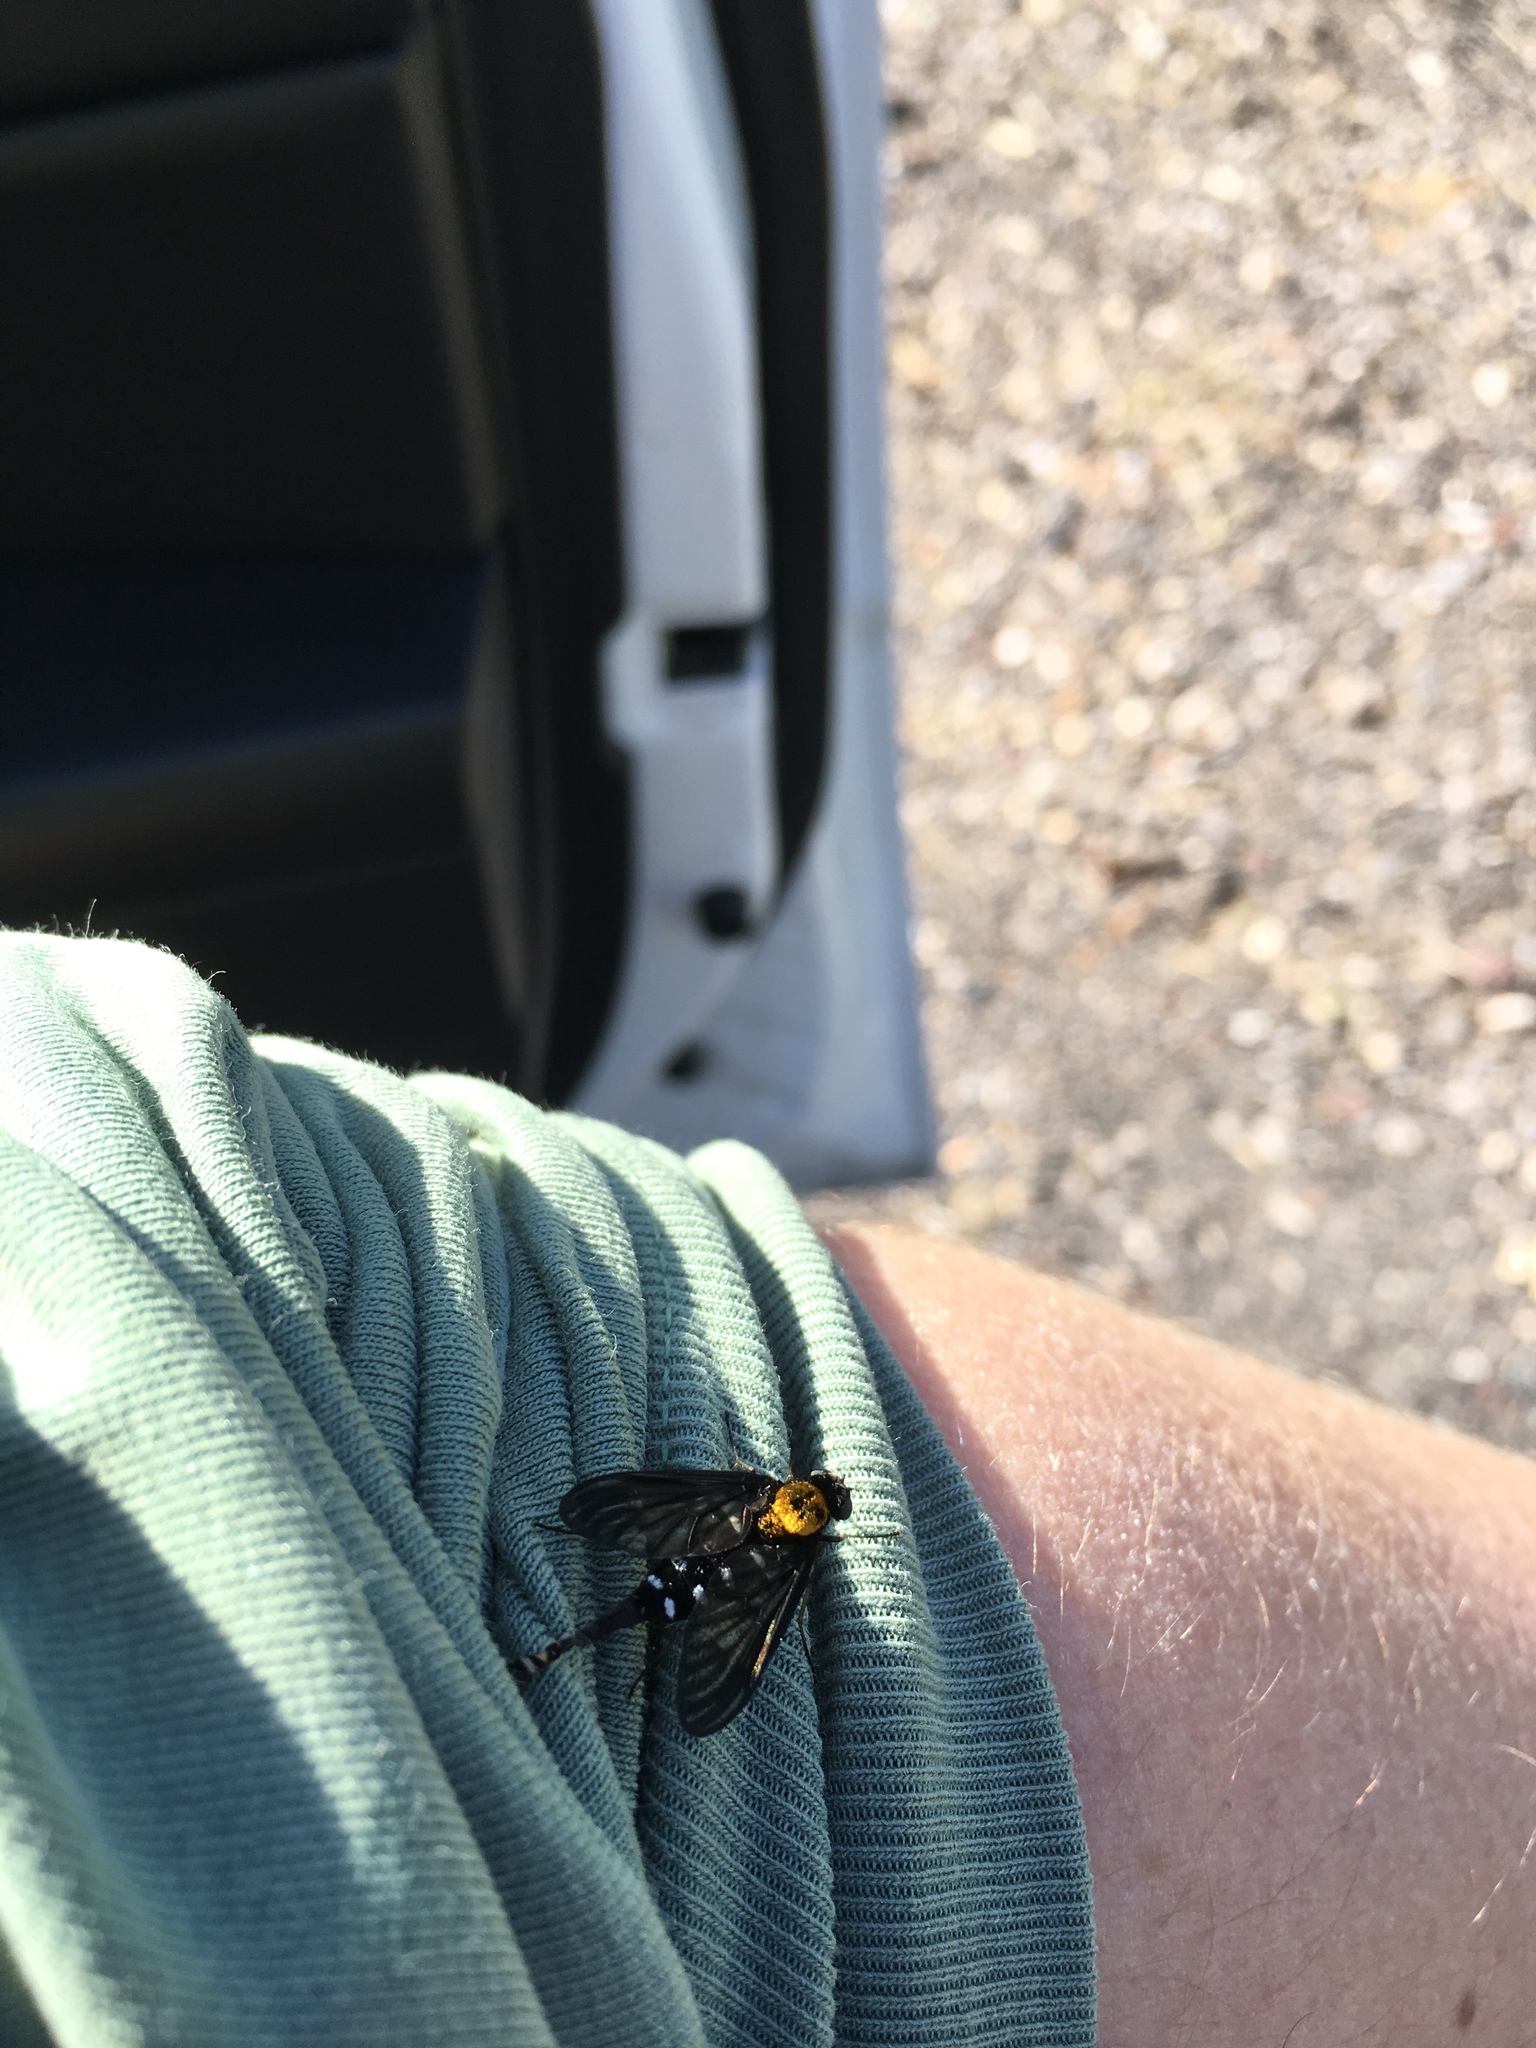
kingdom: Animalia
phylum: Arthropoda
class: Insecta
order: Diptera
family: Rhagionidae
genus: Chrysopilus
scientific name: Chrysopilus thoracicus
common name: Golden-backed snipe fly
